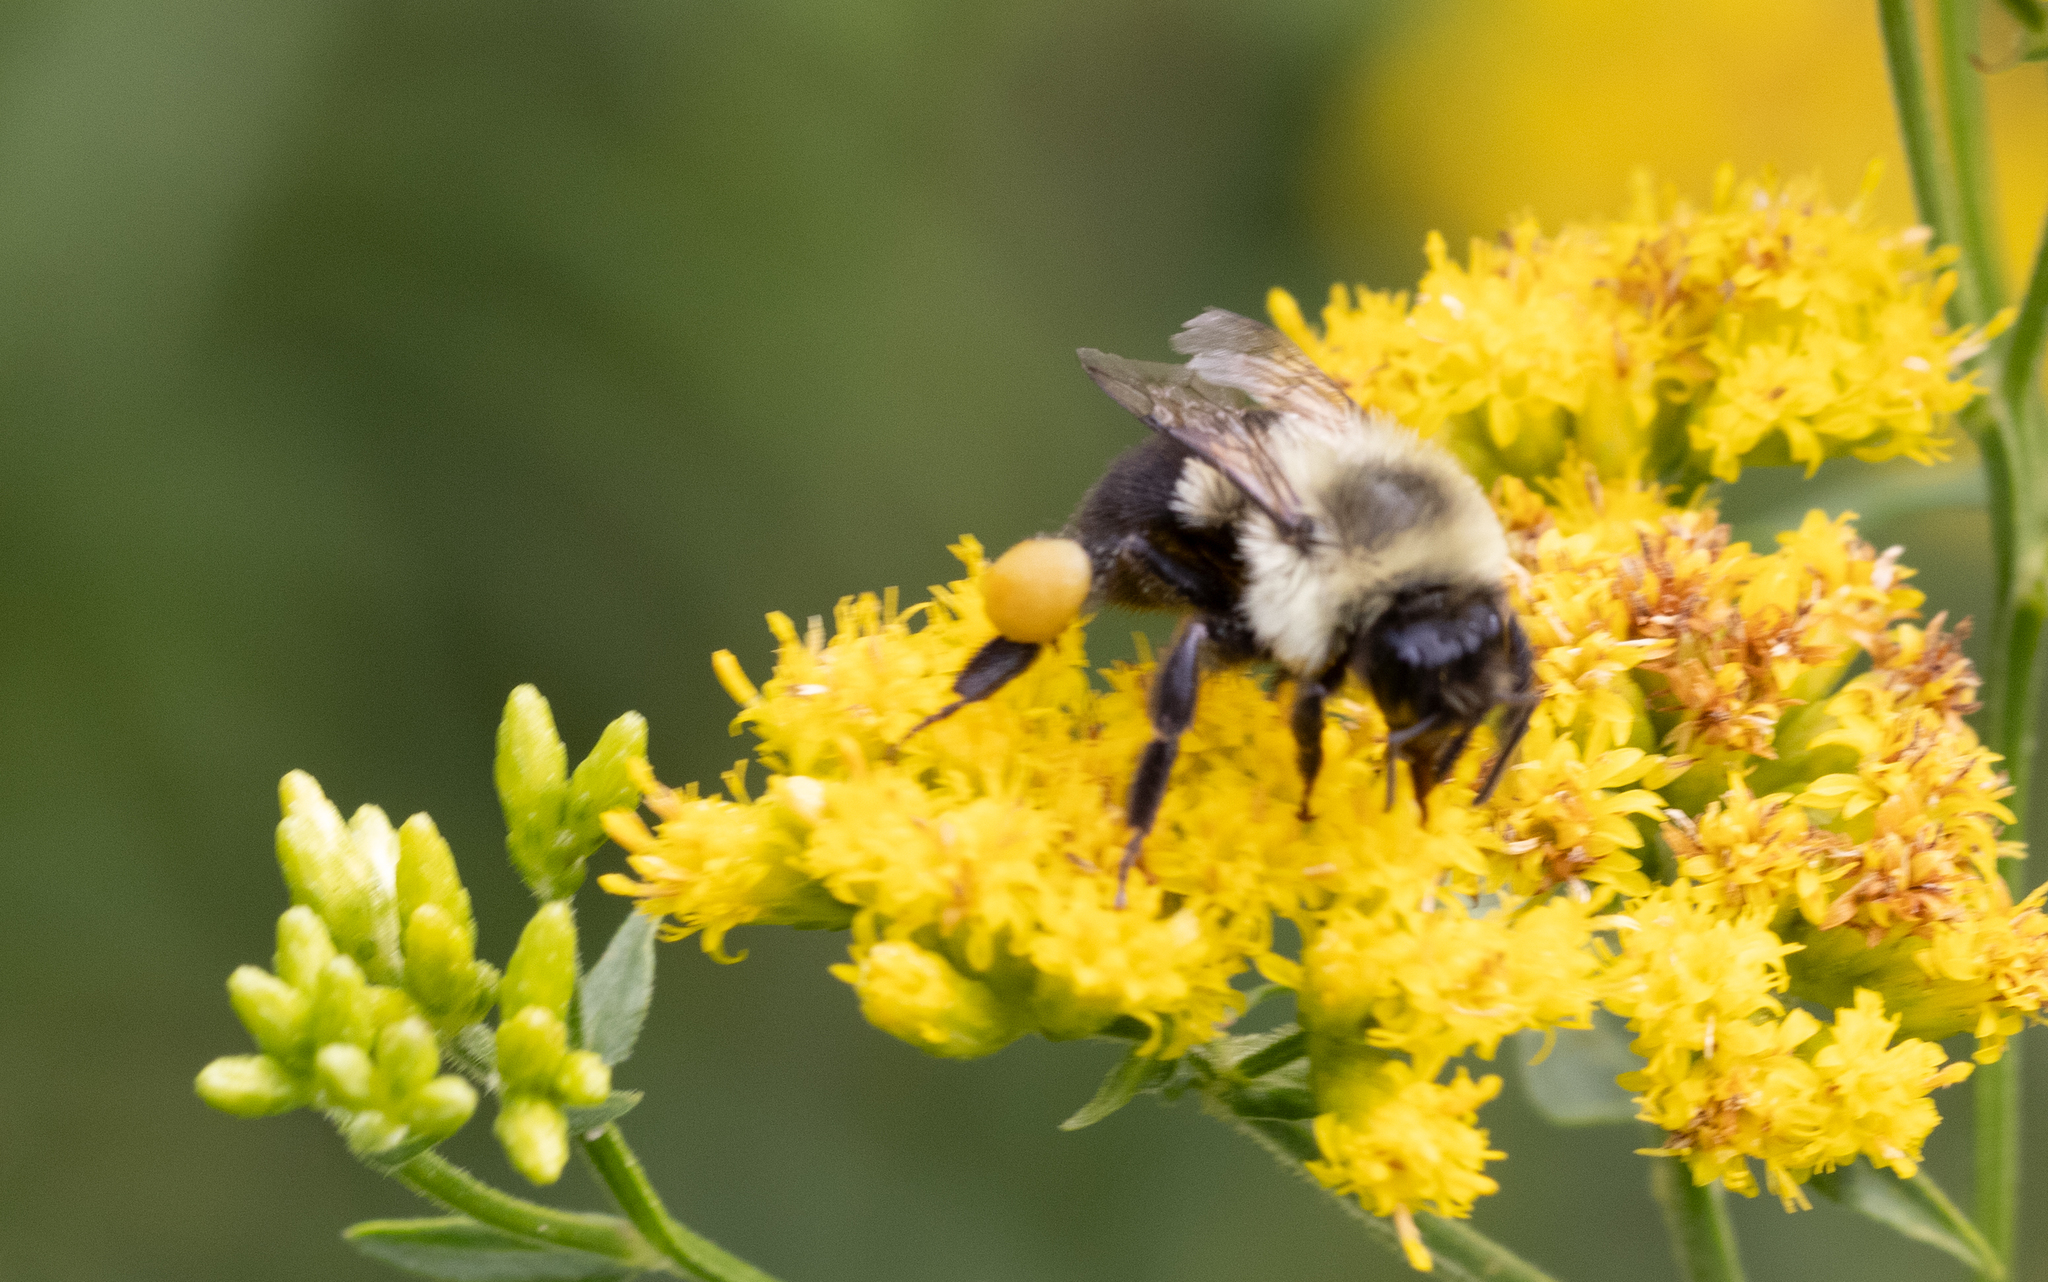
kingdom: Animalia
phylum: Arthropoda
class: Insecta
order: Hymenoptera
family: Apidae
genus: Bombus
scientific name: Bombus impatiens
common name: Common eastern bumble bee
